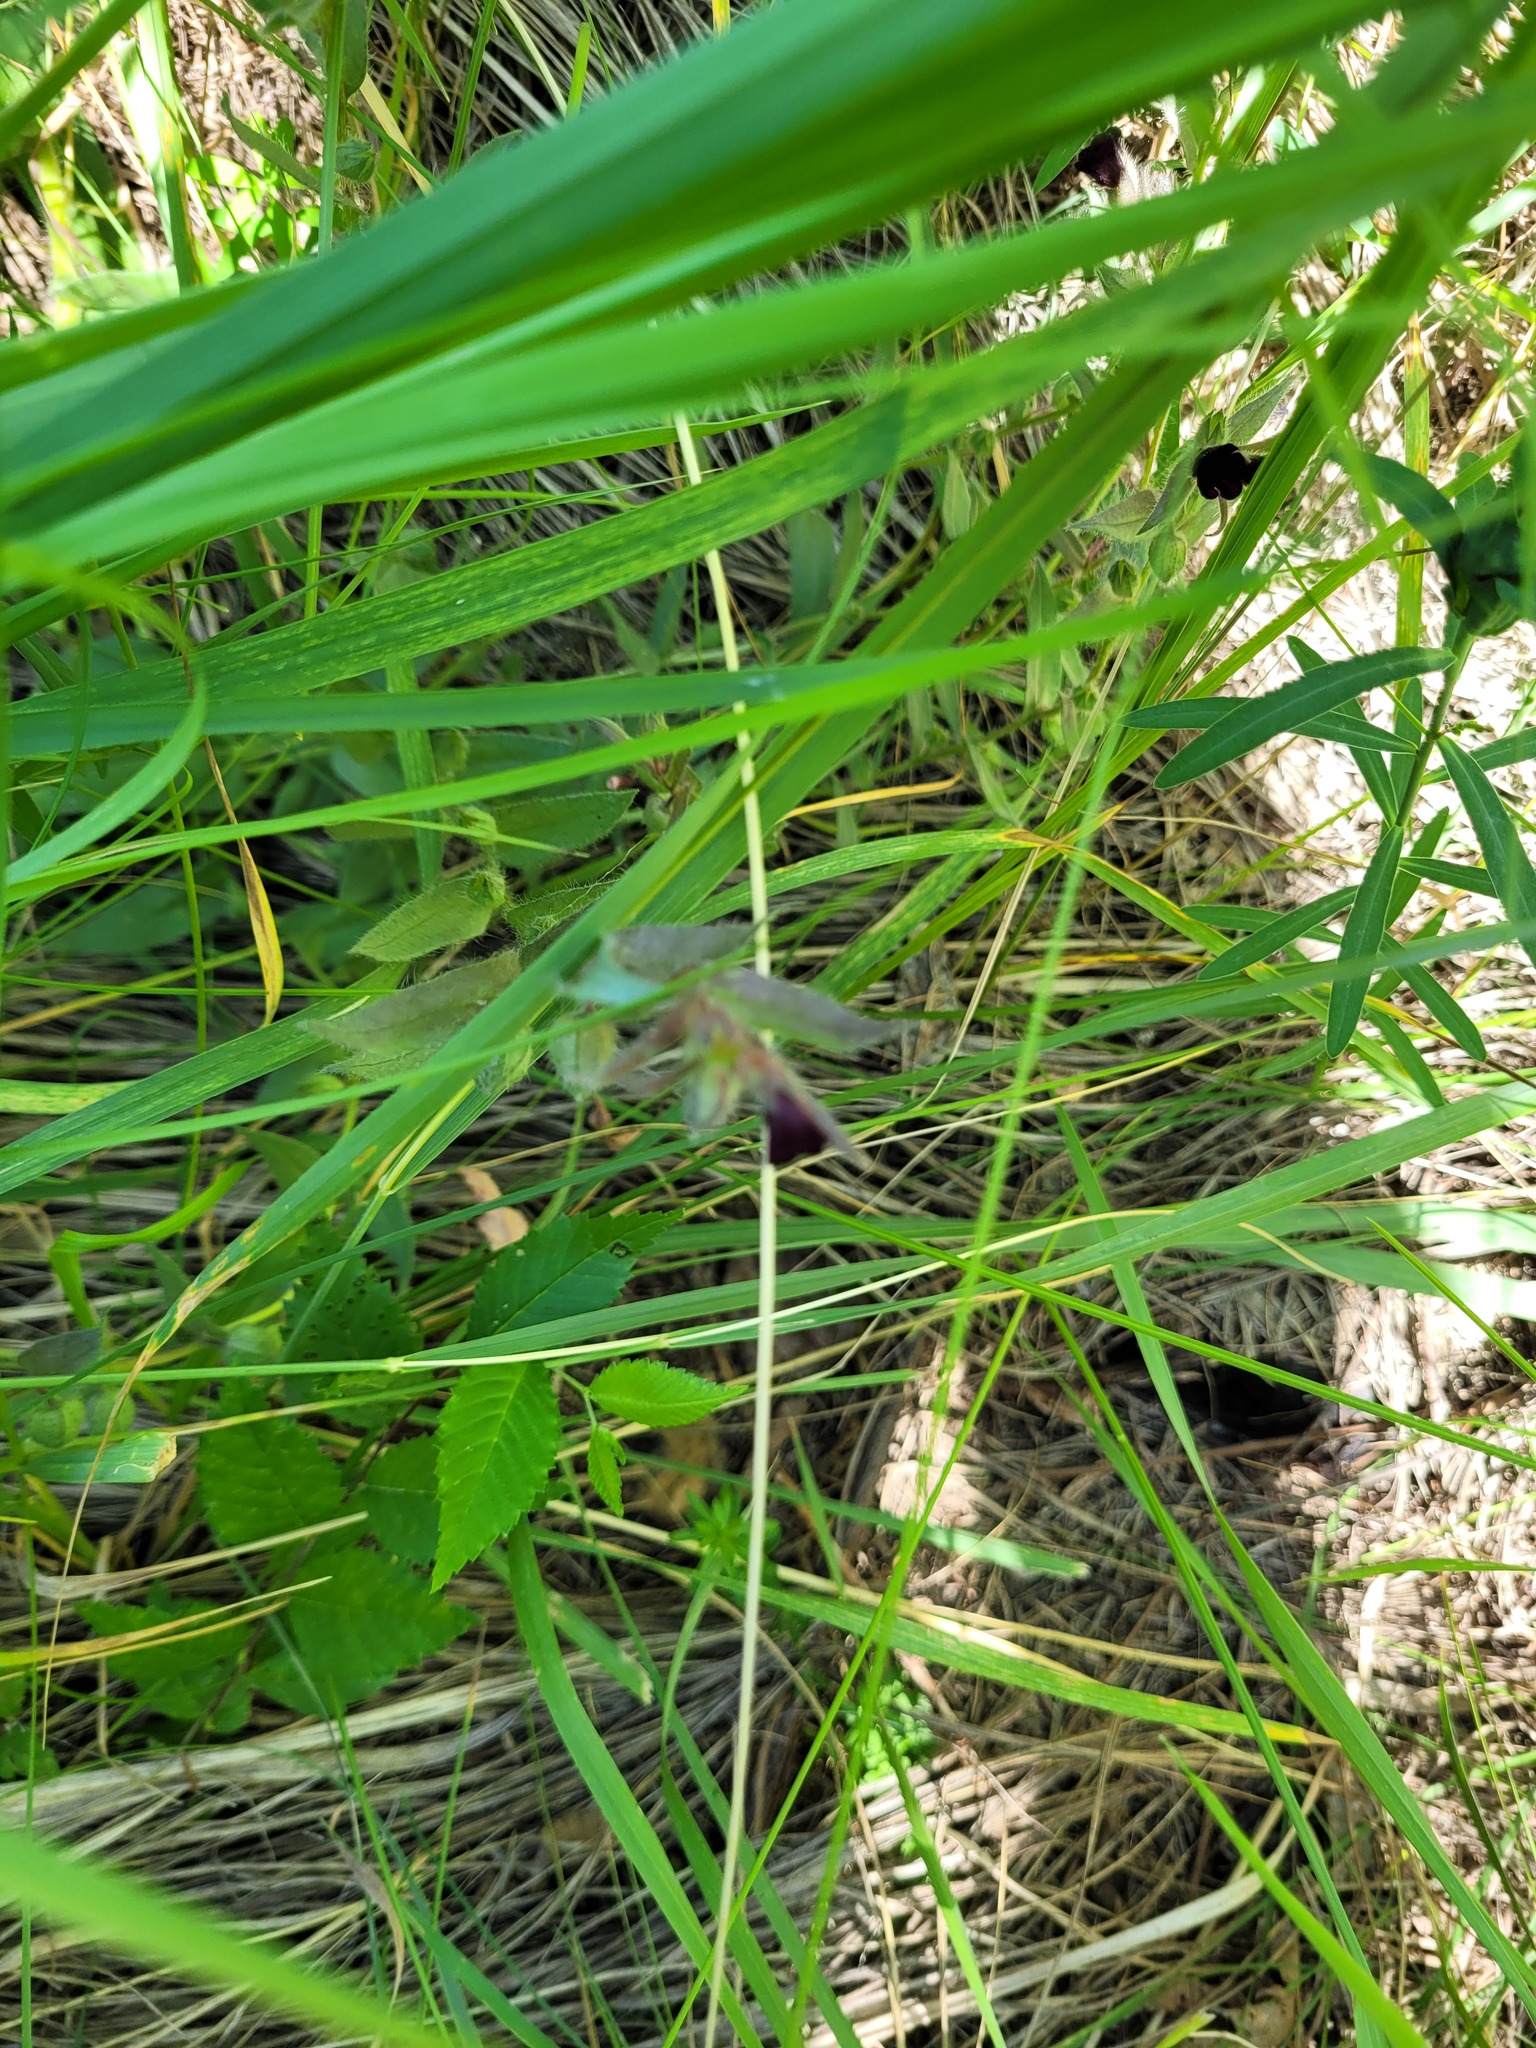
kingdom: Plantae
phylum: Tracheophyta
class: Magnoliopsida
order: Boraginales
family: Boraginaceae
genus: Nonea
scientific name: Nonea pulla
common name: Brown nonea
